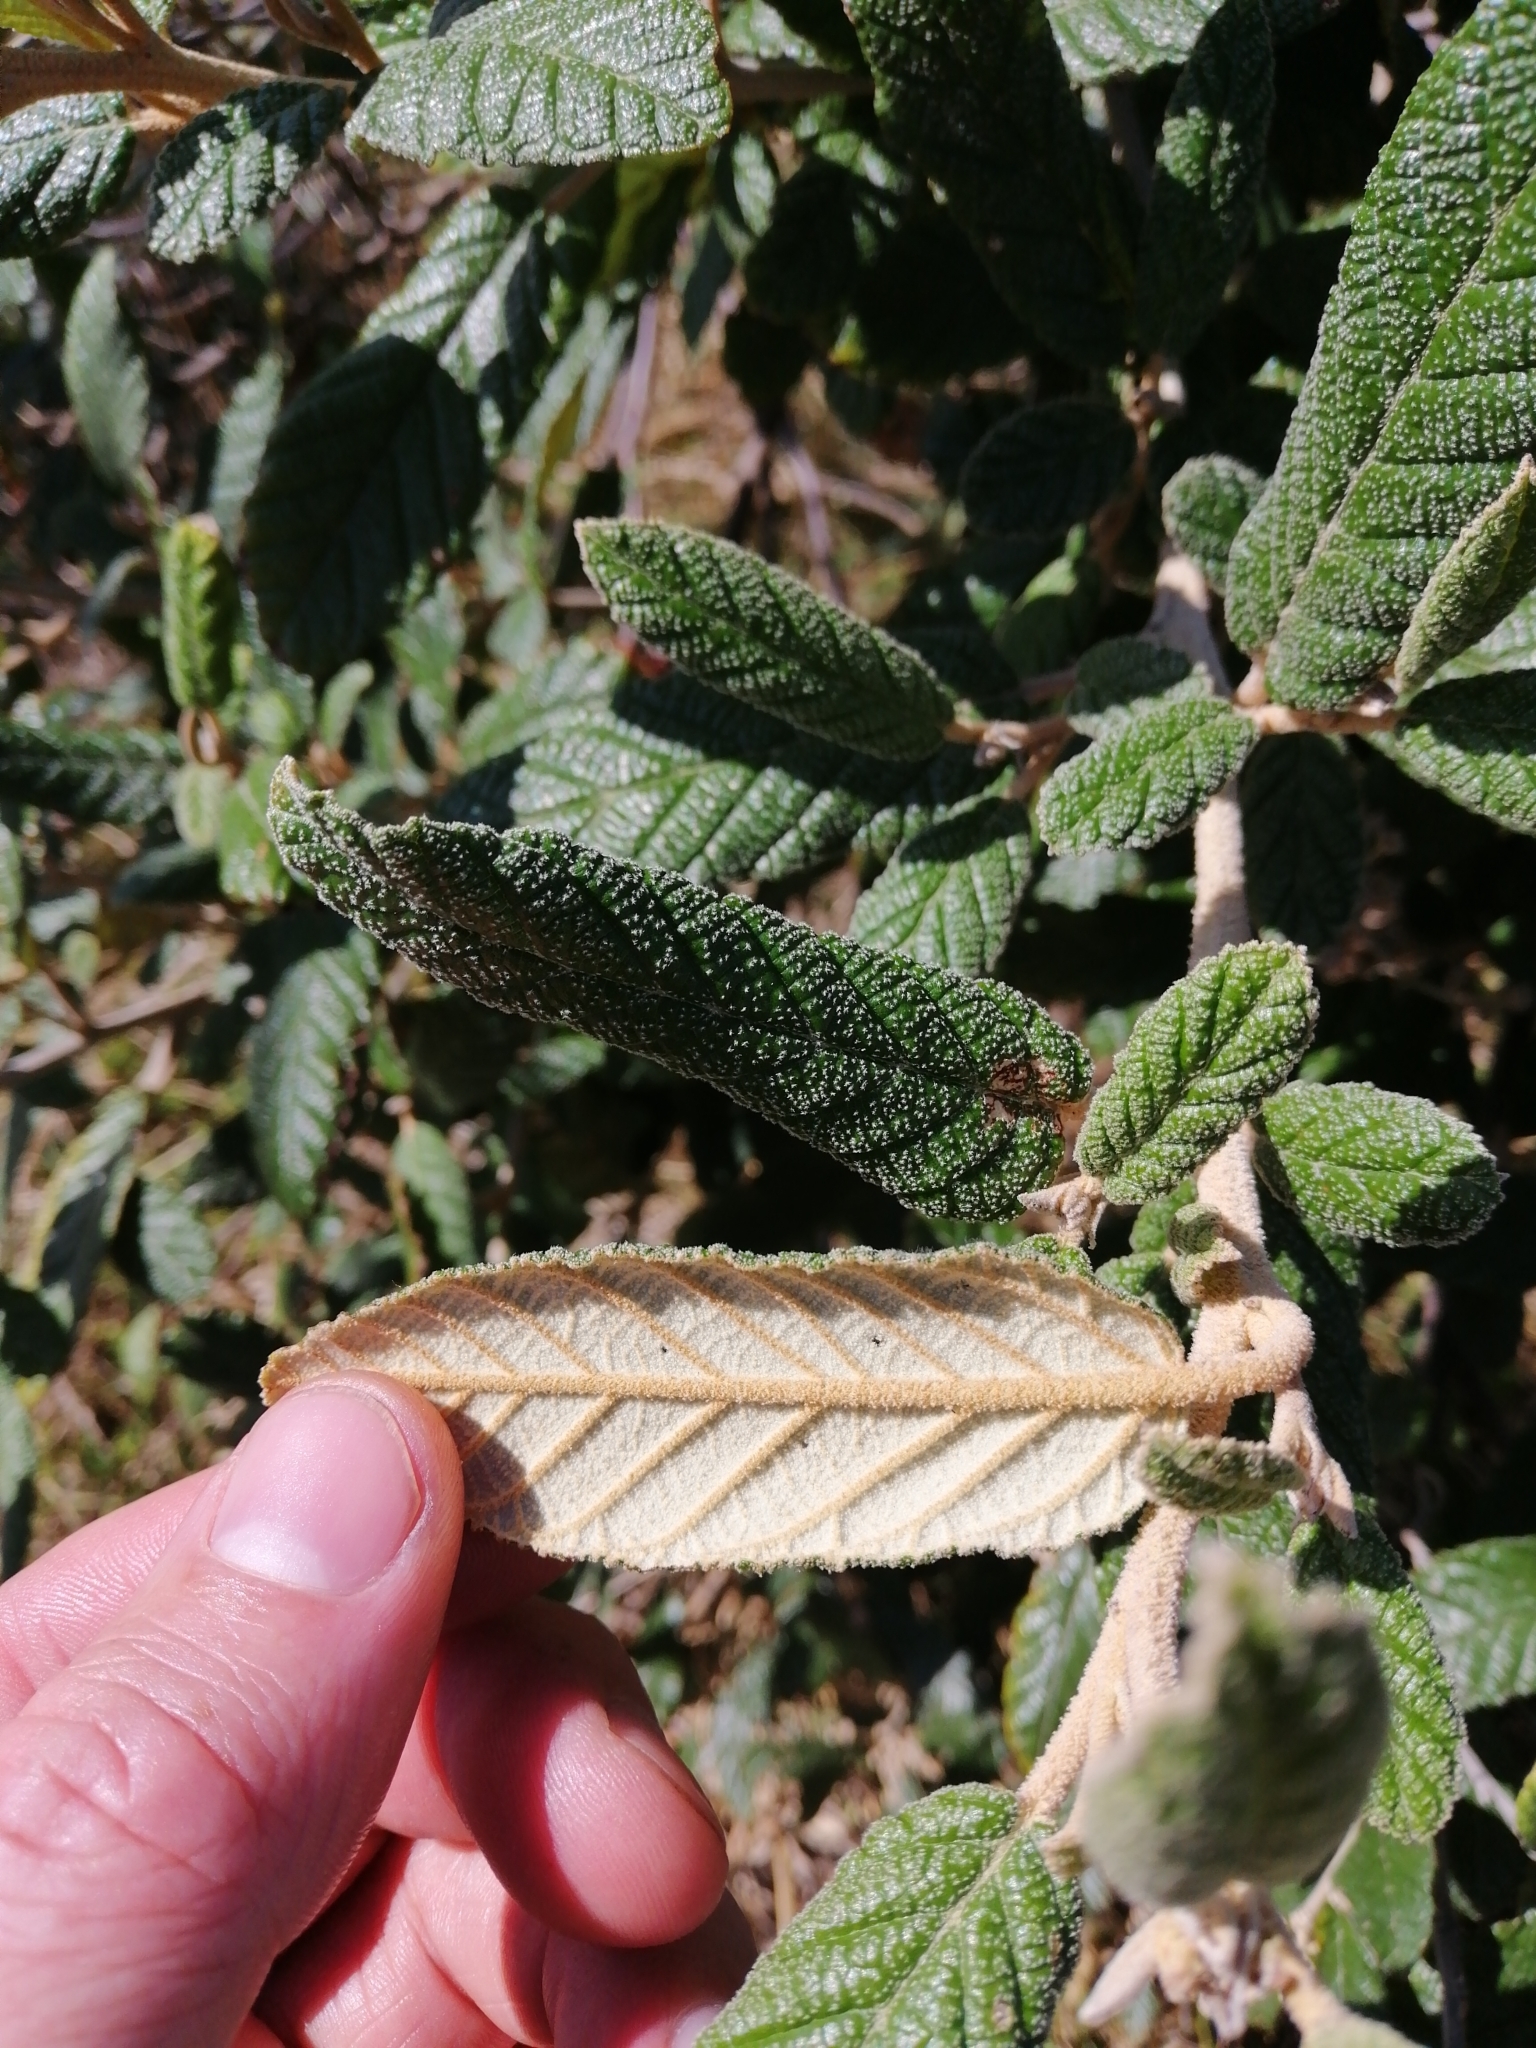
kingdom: Plantae
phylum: Tracheophyta
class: Magnoliopsida
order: Rosales
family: Rhamnaceae
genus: Pomaderris
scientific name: Pomaderris apetala
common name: Hazel pomaderris
